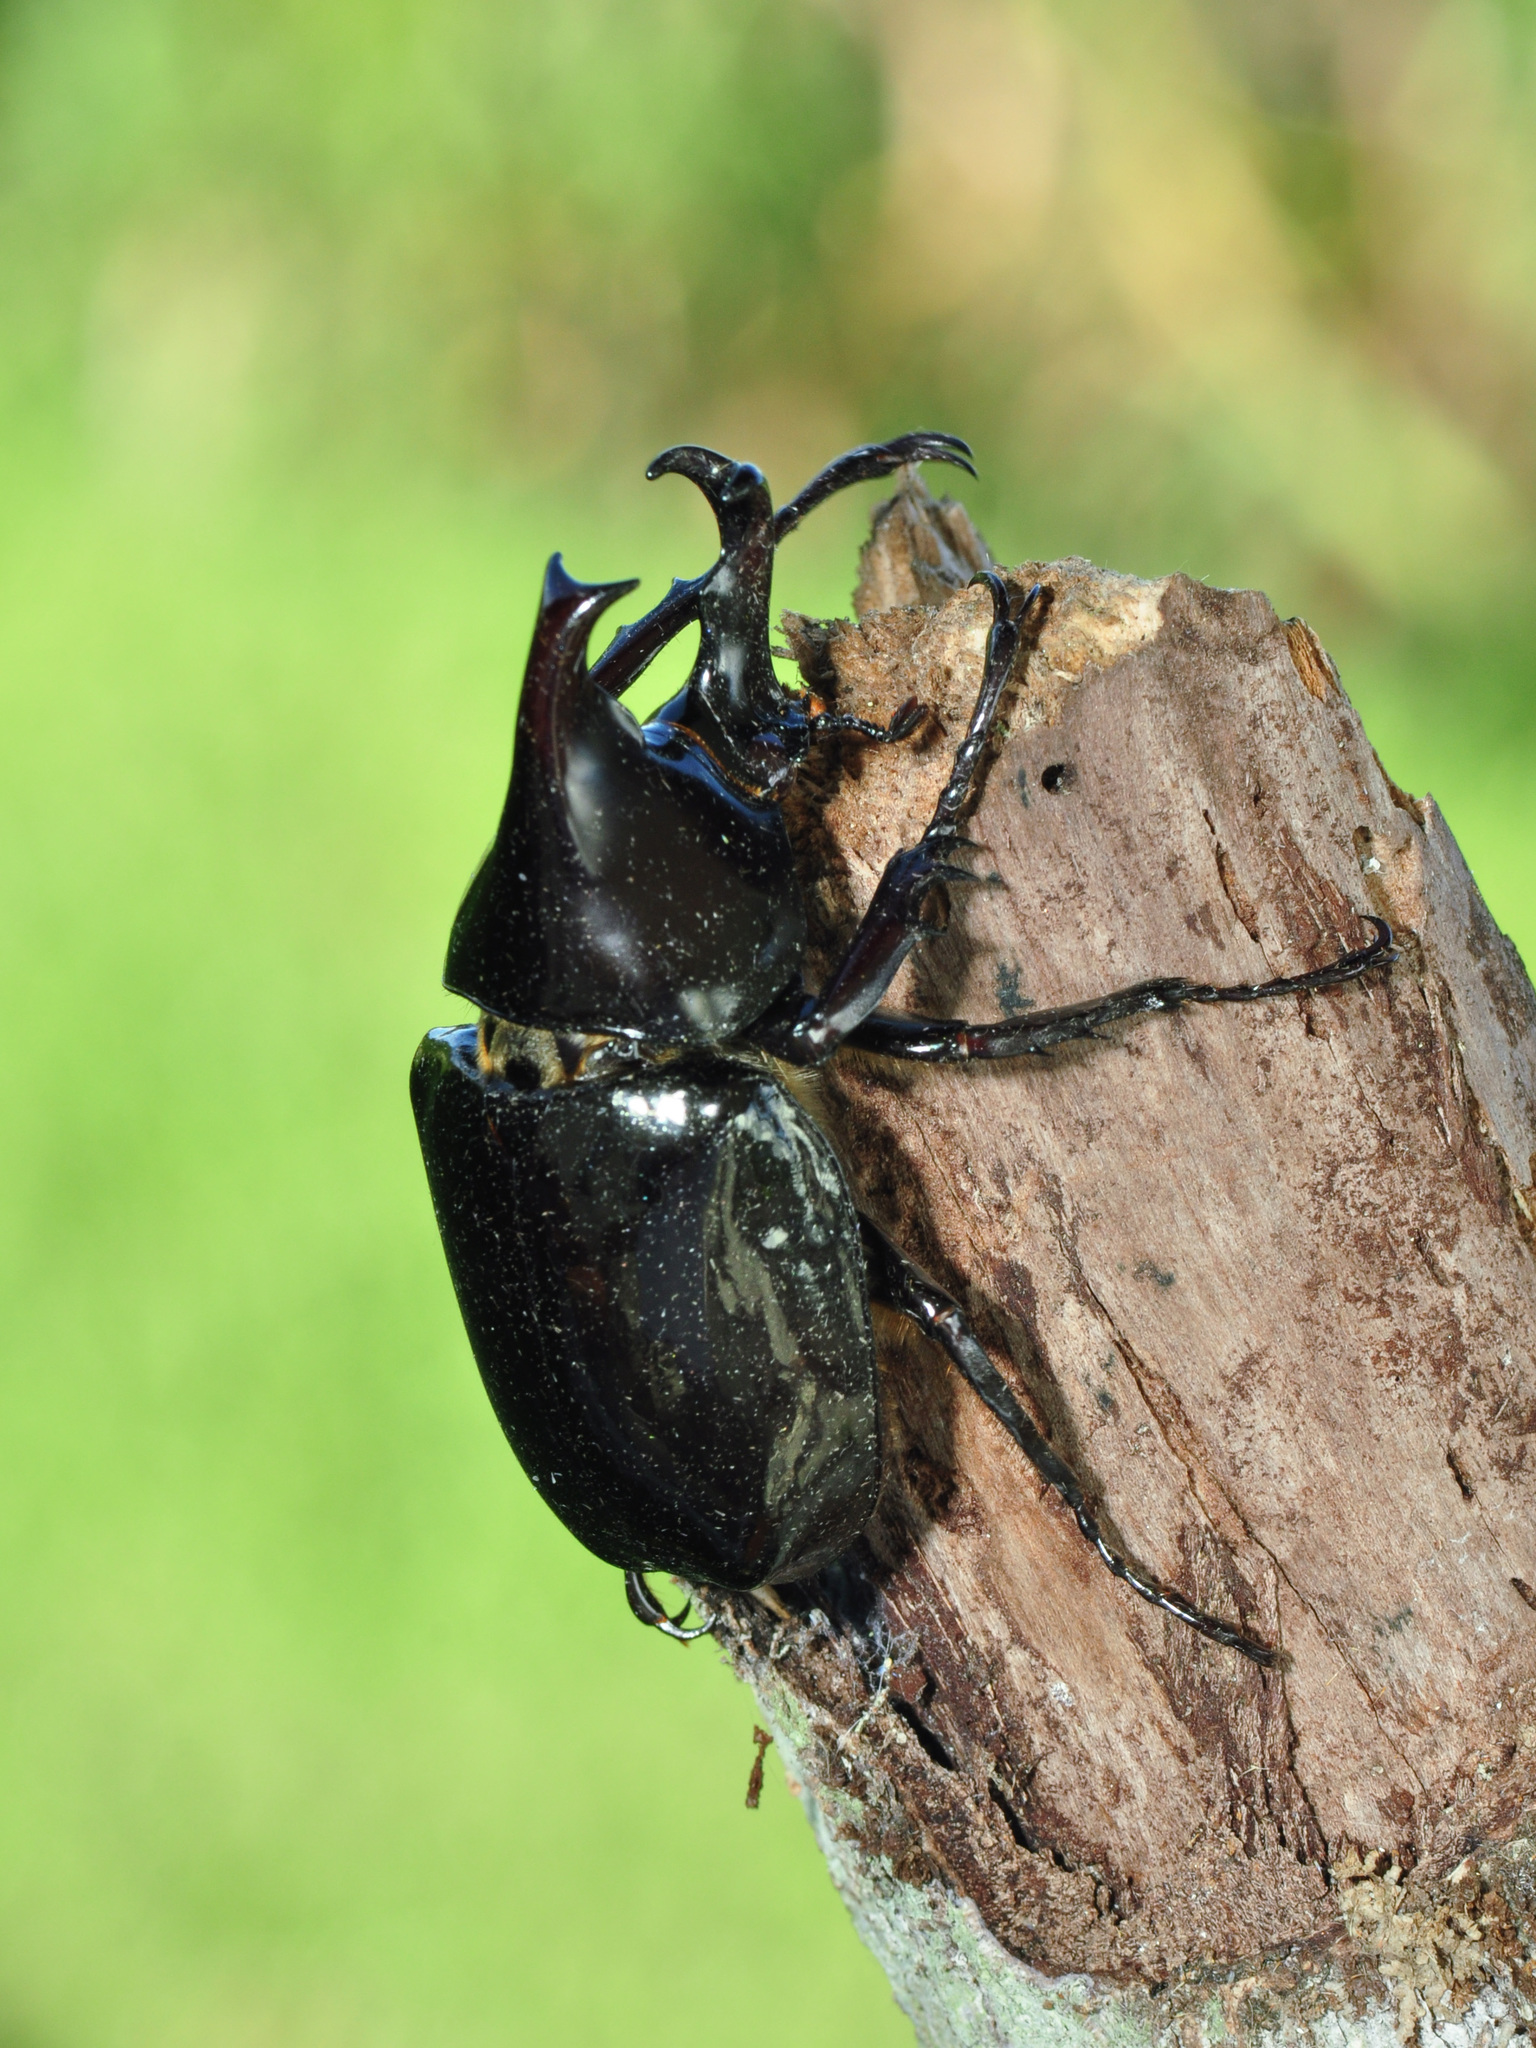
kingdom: Animalia
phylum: Arthropoda
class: Insecta
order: Coleoptera
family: Scarabaeidae
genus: Xylotrupes
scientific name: Xylotrupes sumatrensis
